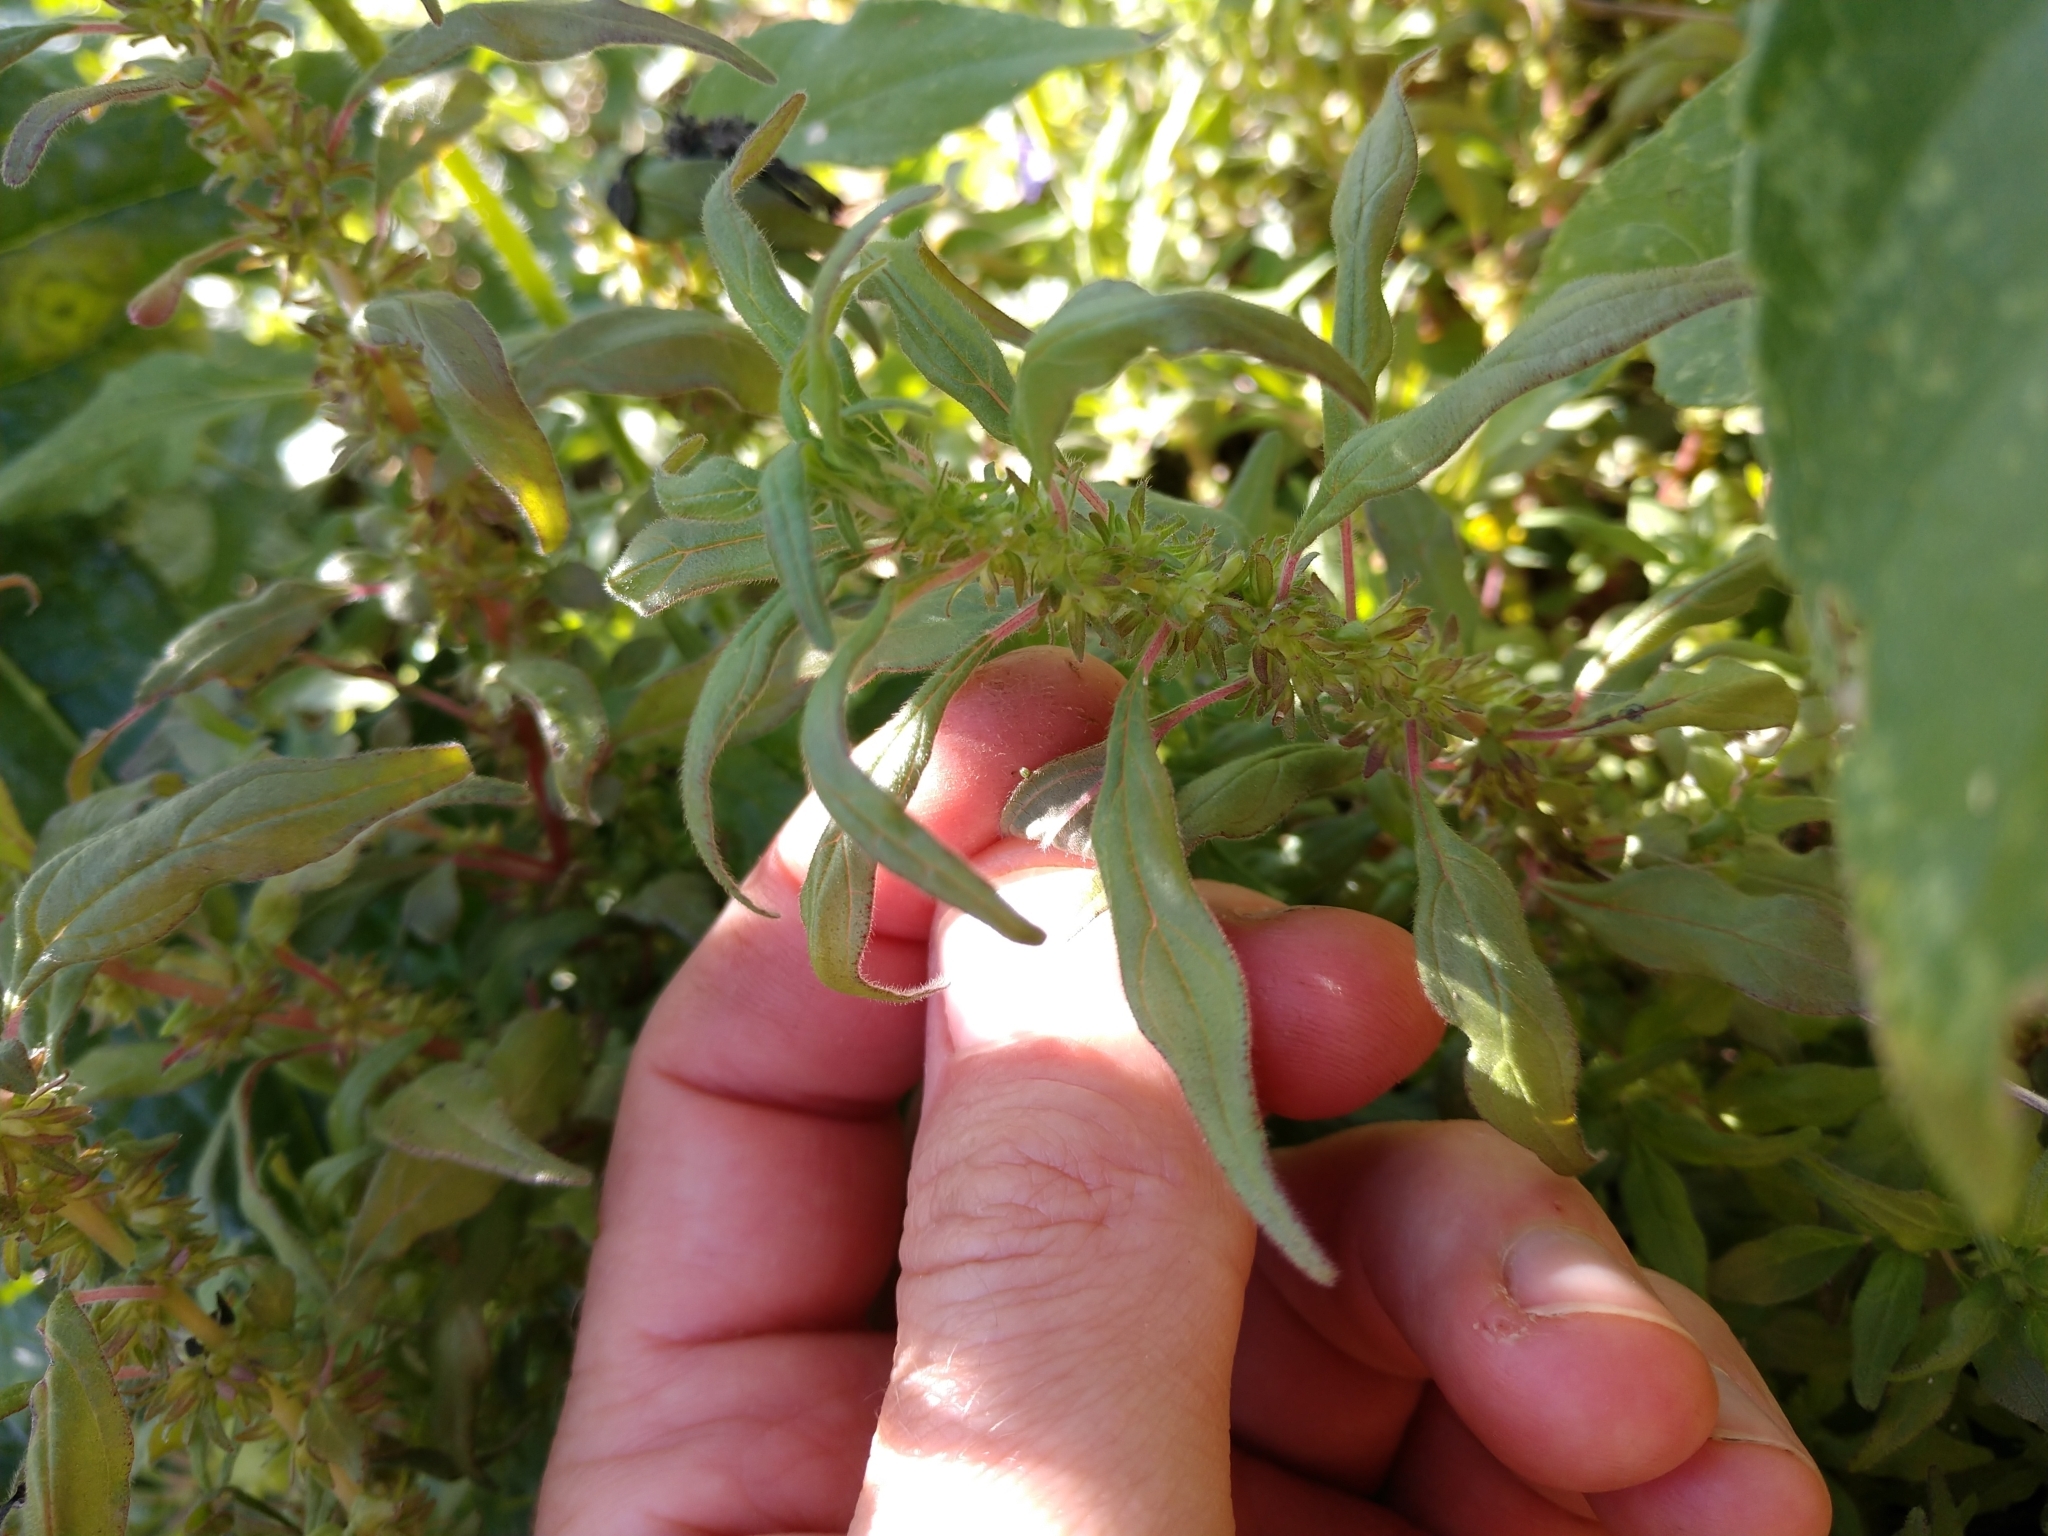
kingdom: Animalia
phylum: Arthropoda
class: Insecta
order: Lepidoptera
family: Nymphalidae
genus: Vanessa
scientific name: Vanessa atalanta
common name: Red admiral
